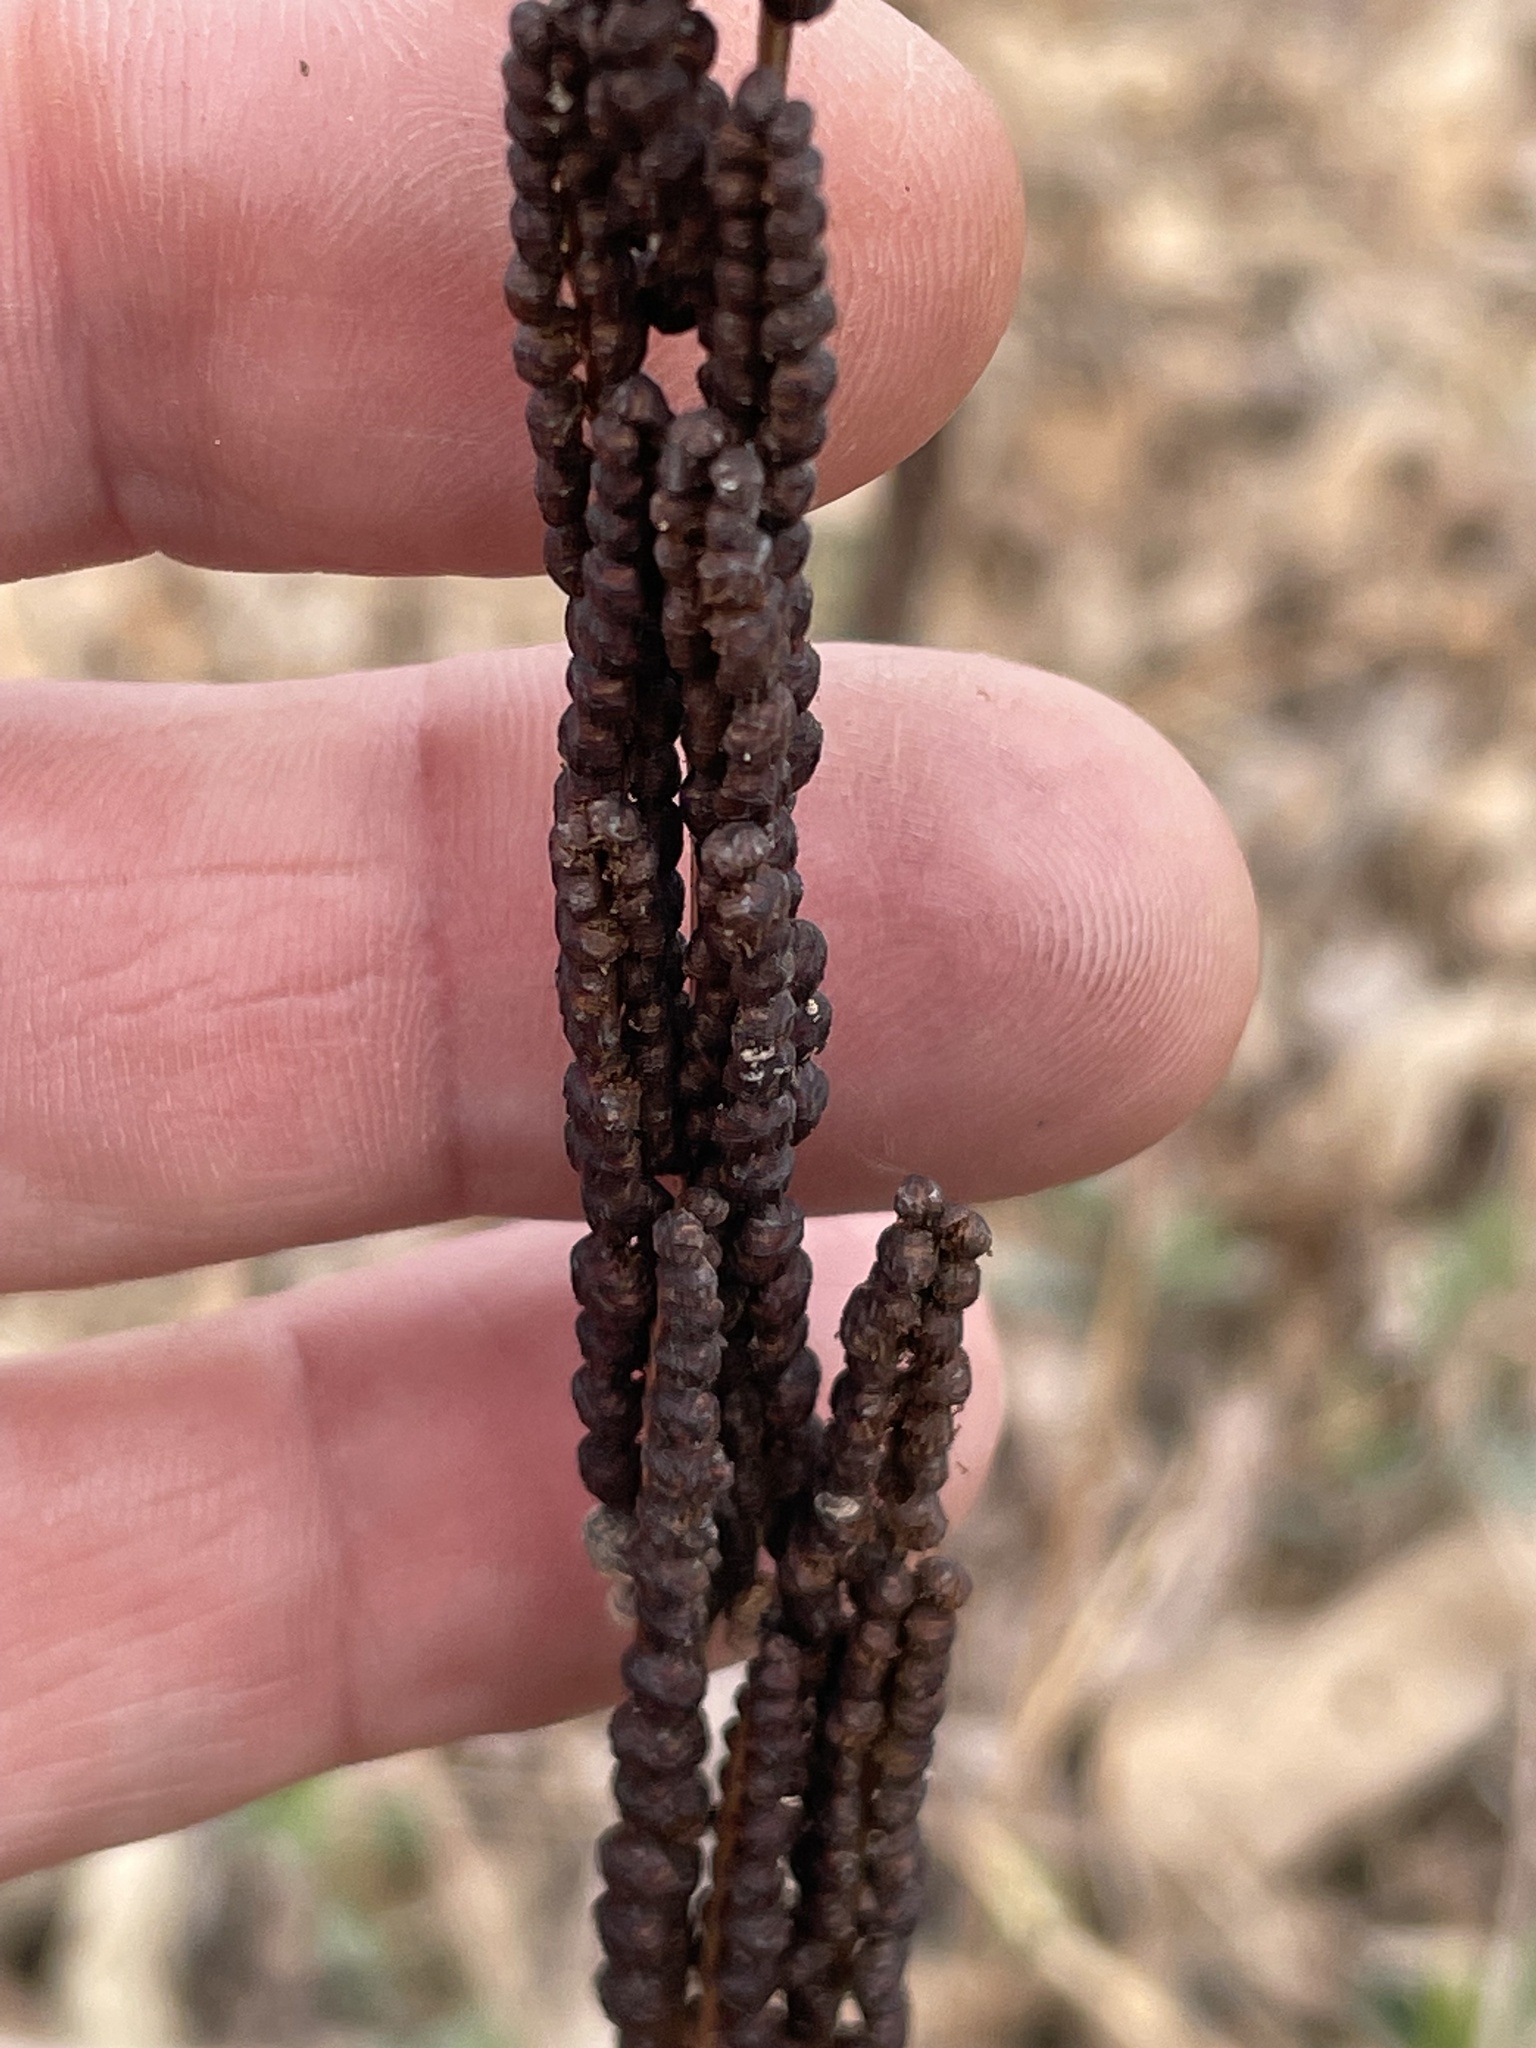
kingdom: Plantae
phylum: Tracheophyta
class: Polypodiopsida
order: Polypodiales
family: Onocleaceae
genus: Onoclea
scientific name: Onoclea sensibilis
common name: Sensitive fern
